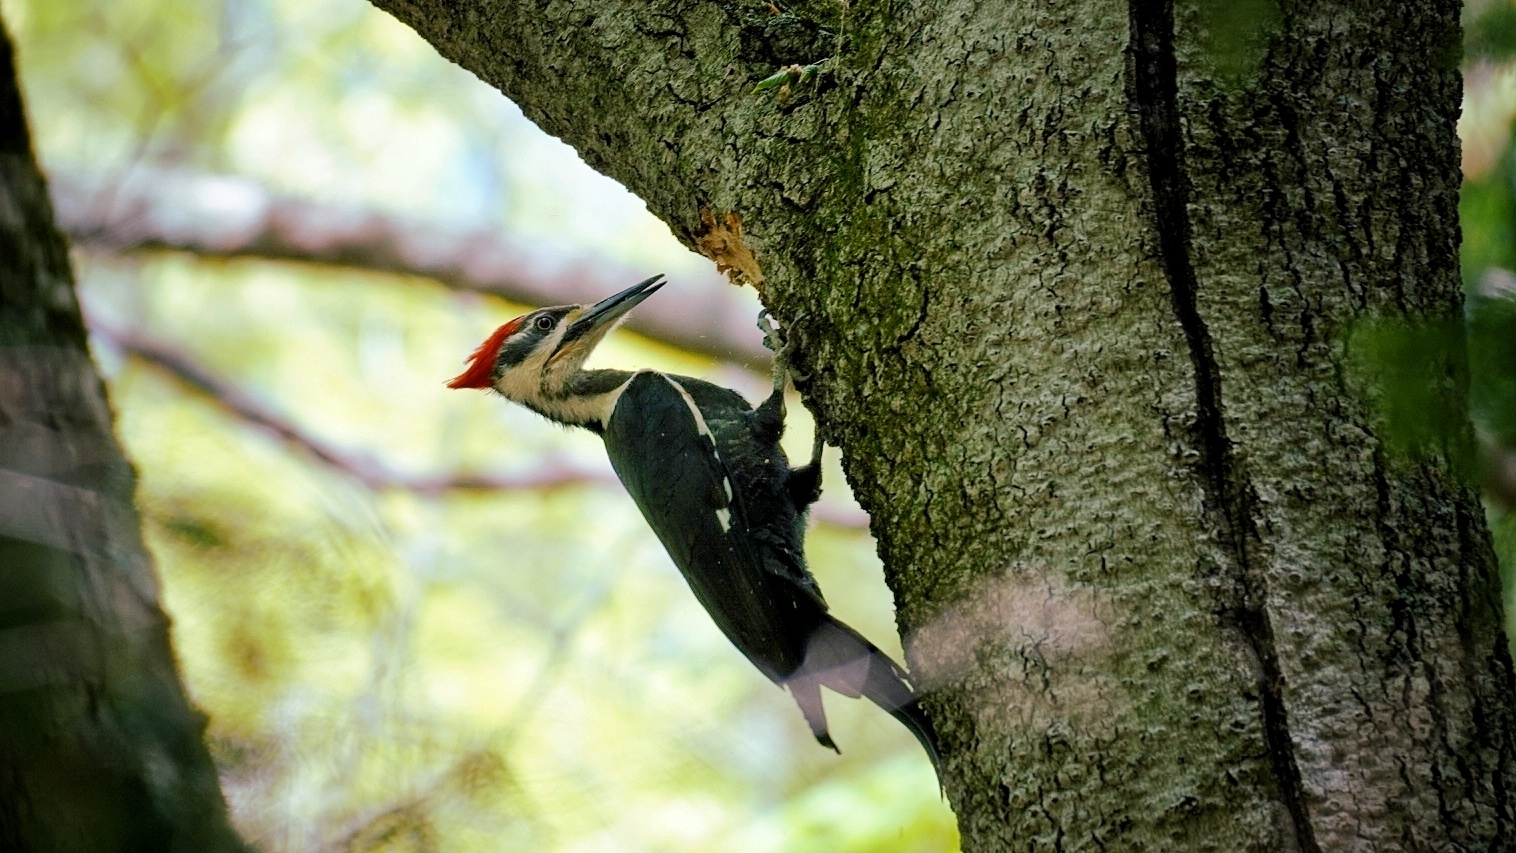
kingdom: Animalia
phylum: Chordata
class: Aves
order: Piciformes
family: Picidae
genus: Dryocopus
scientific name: Dryocopus pileatus
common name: Pileated woodpecker
